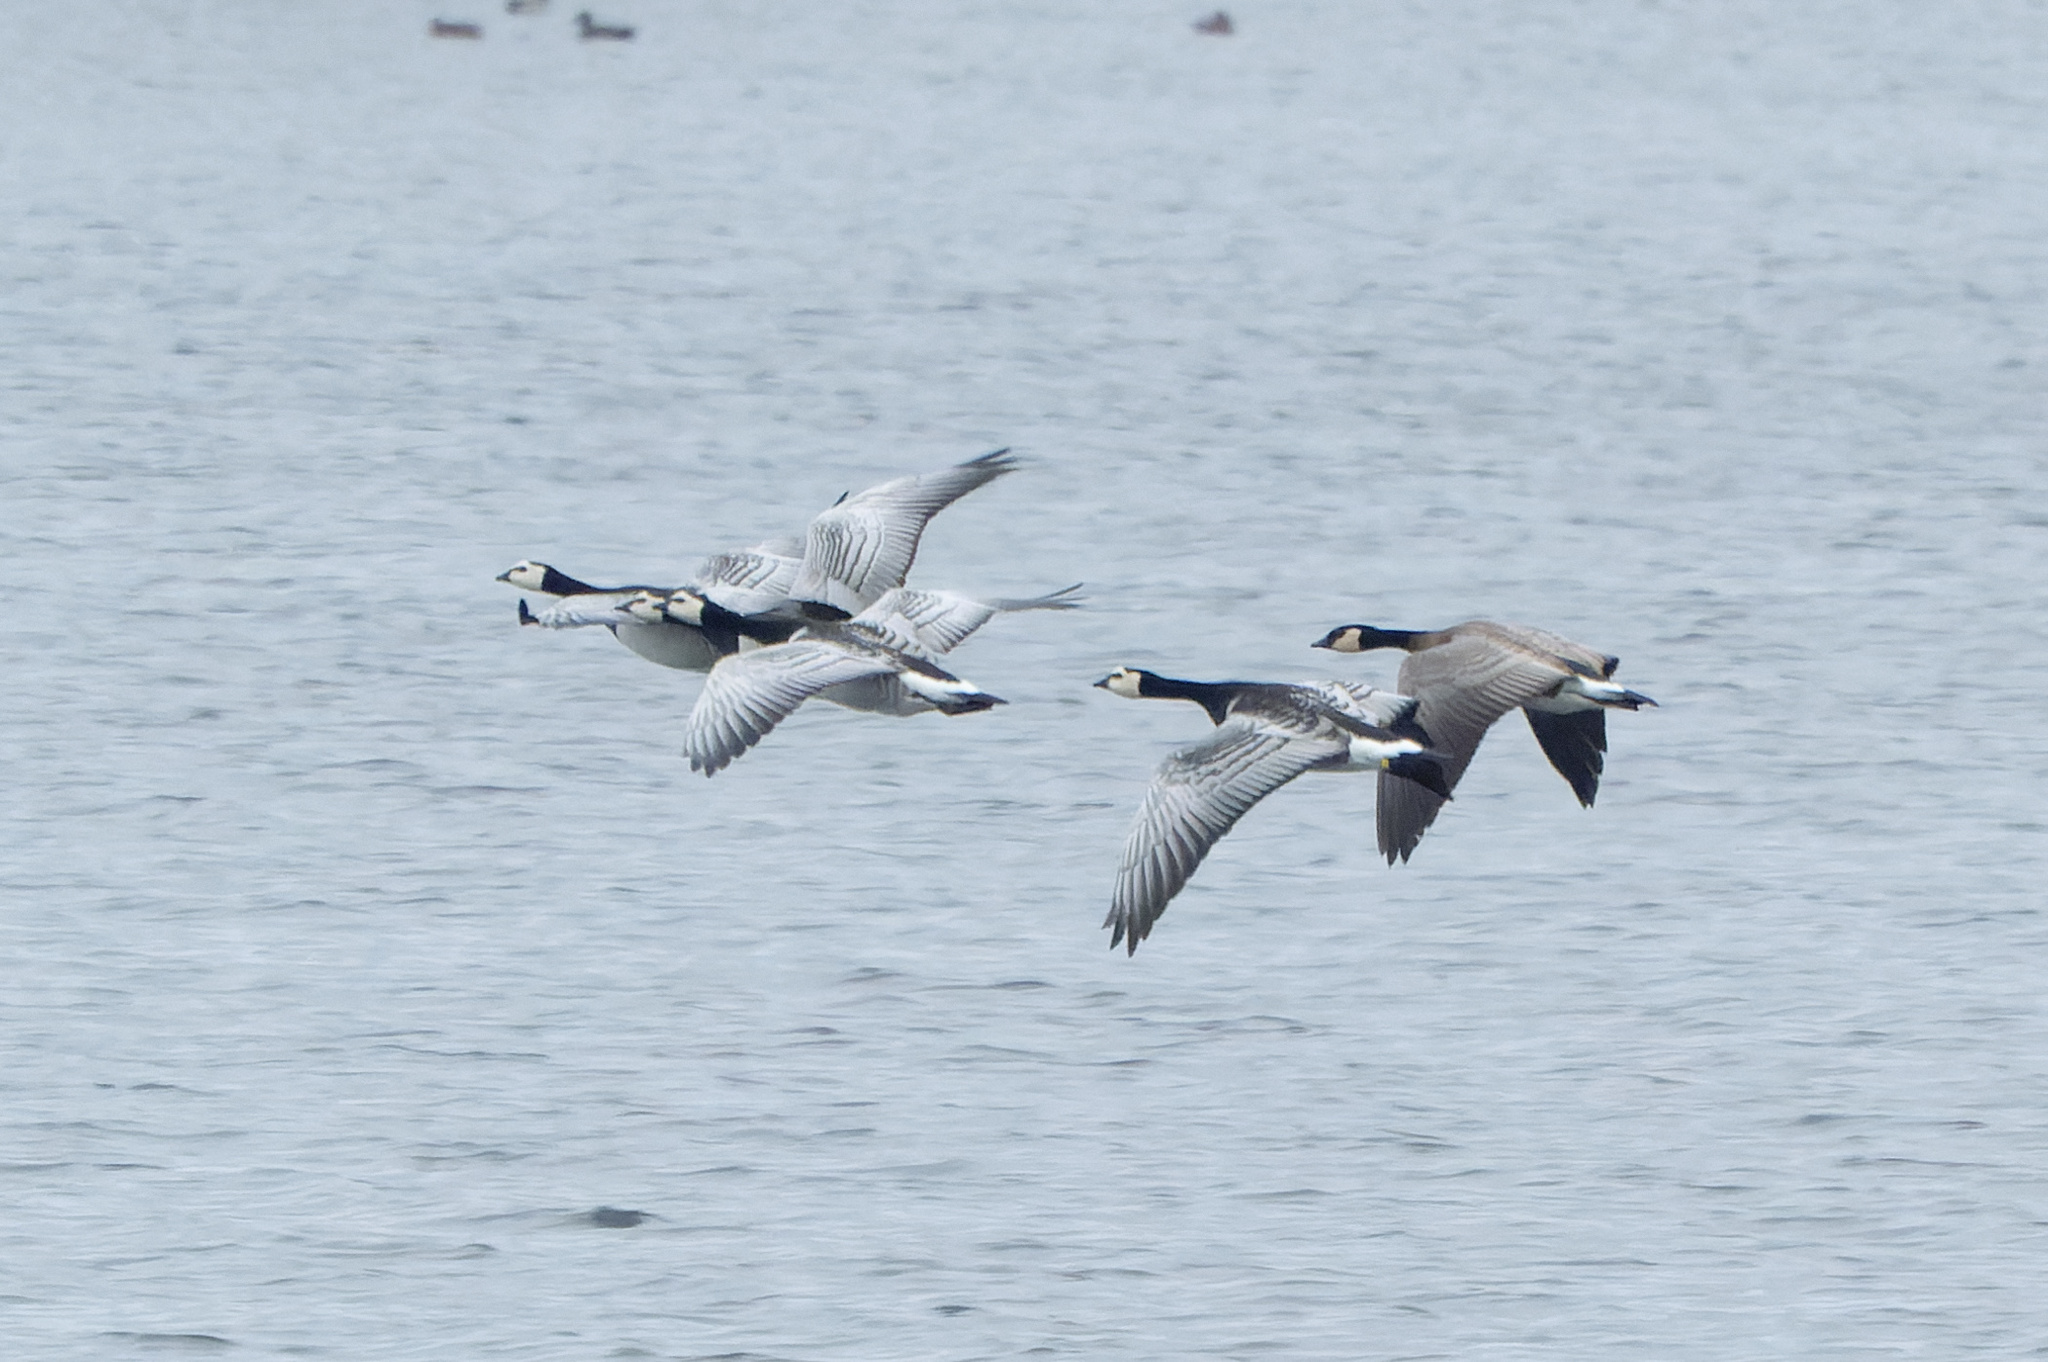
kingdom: Animalia
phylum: Chordata
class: Aves
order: Anseriformes
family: Anatidae
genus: Branta
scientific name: Branta leucopsis
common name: Barnacle goose
